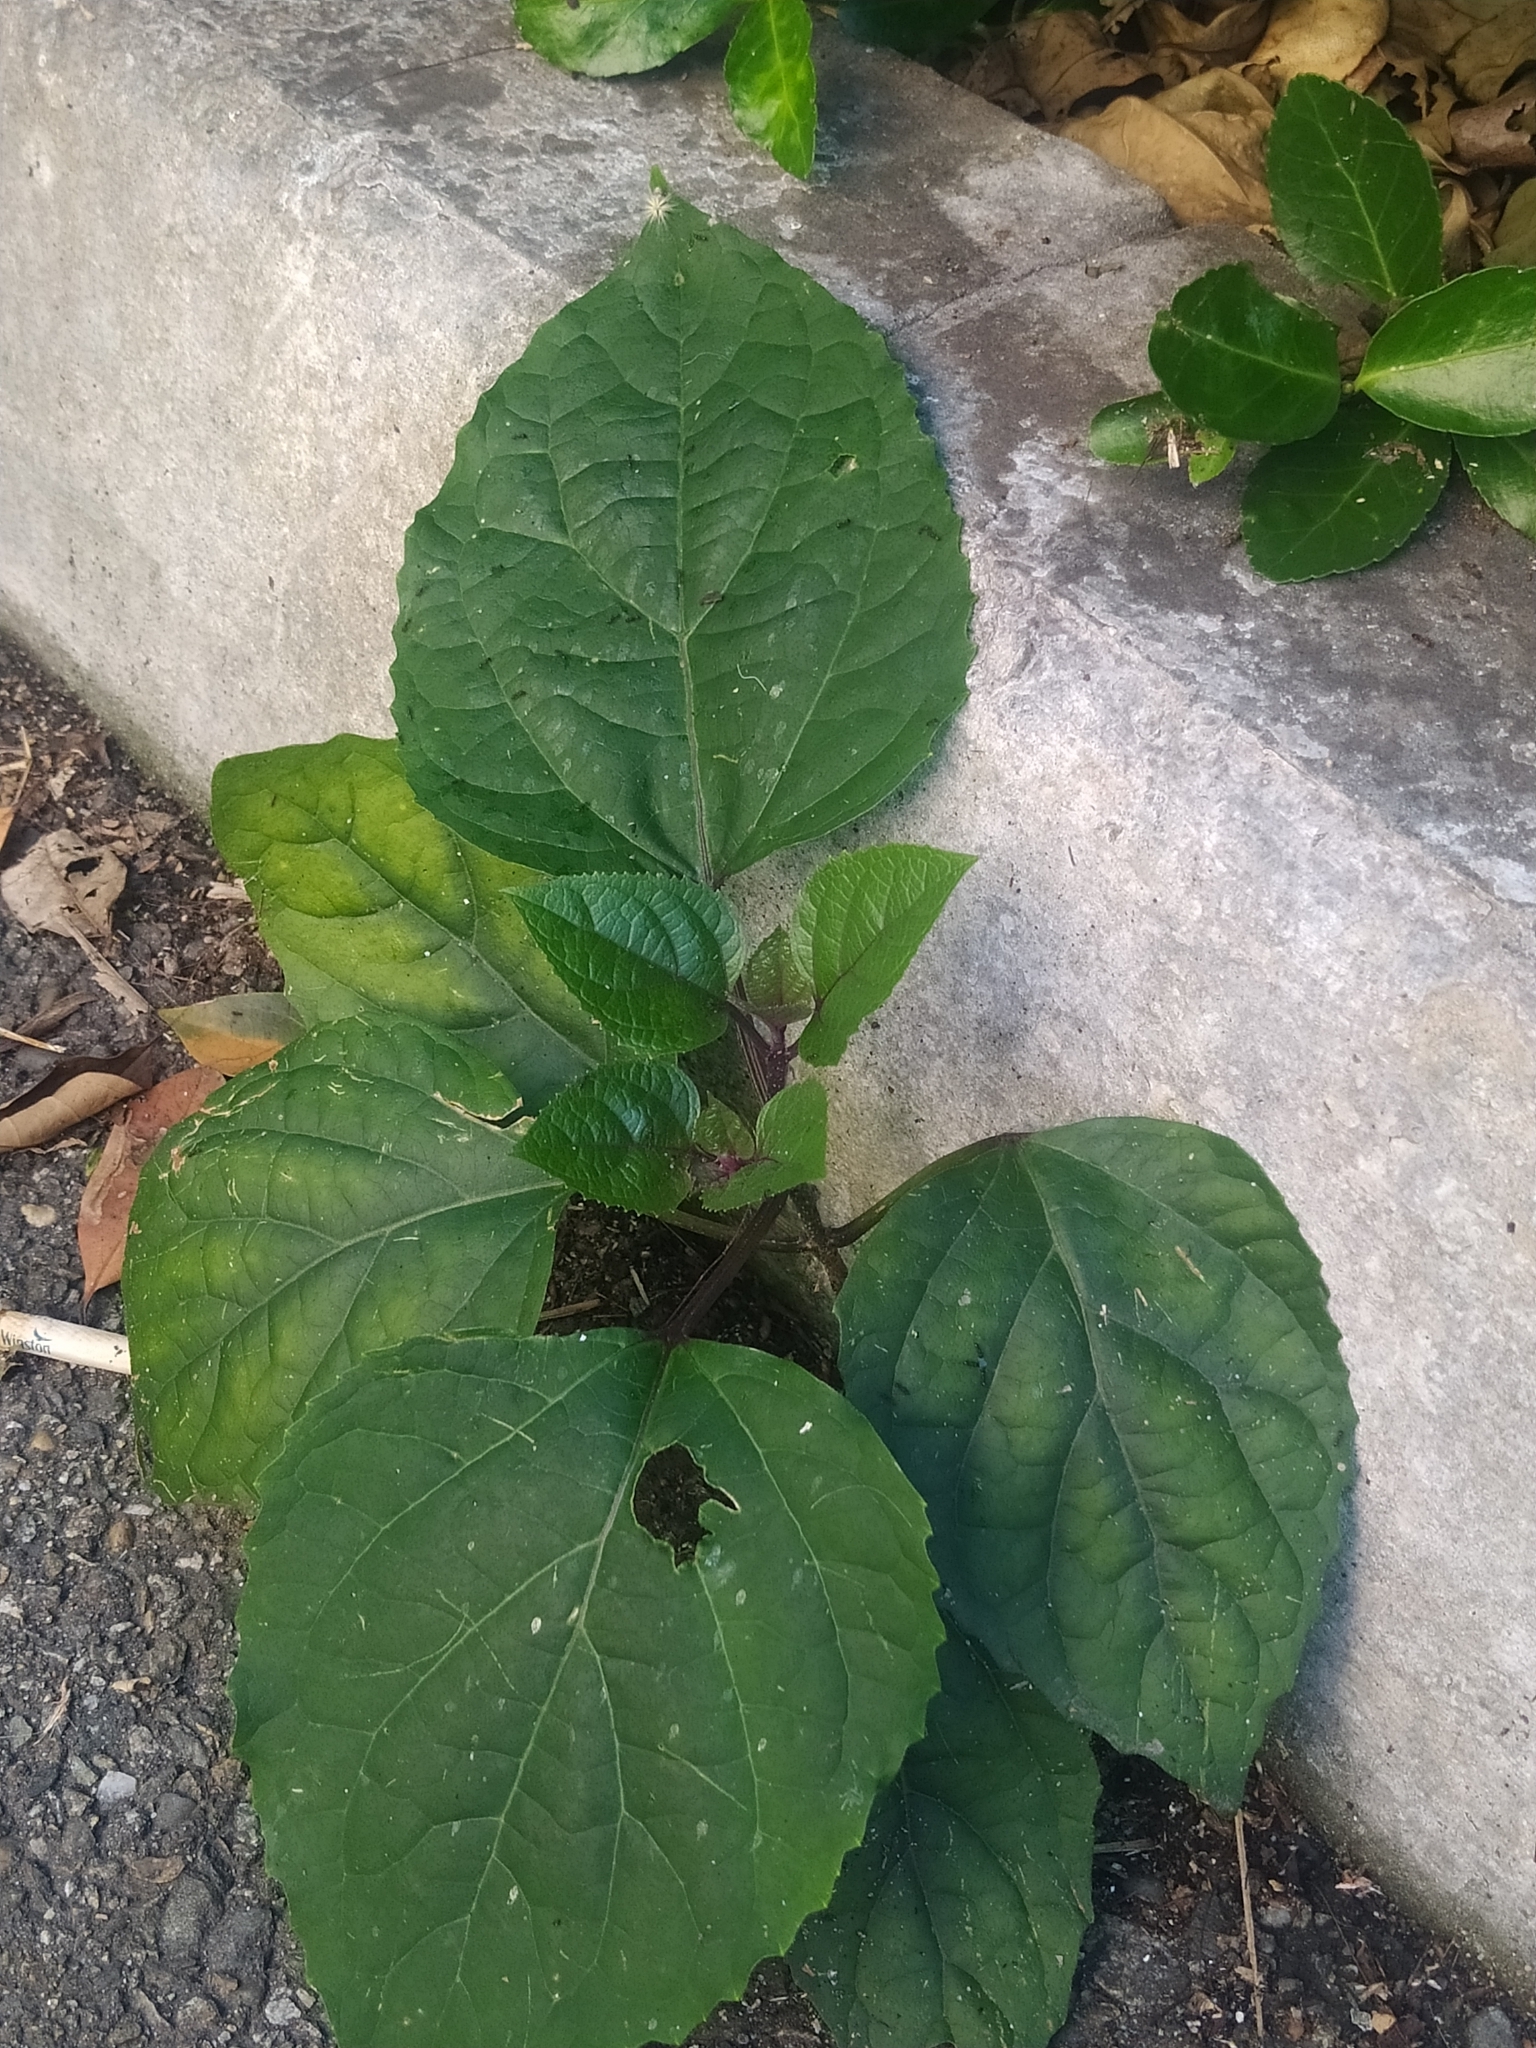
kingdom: Plantae
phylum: Tracheophyta
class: Magnoliopsida
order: Lamiales
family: Lamiaceae
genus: Clerodendrum
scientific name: Clerodendrum bungei
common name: Rose glorybower
